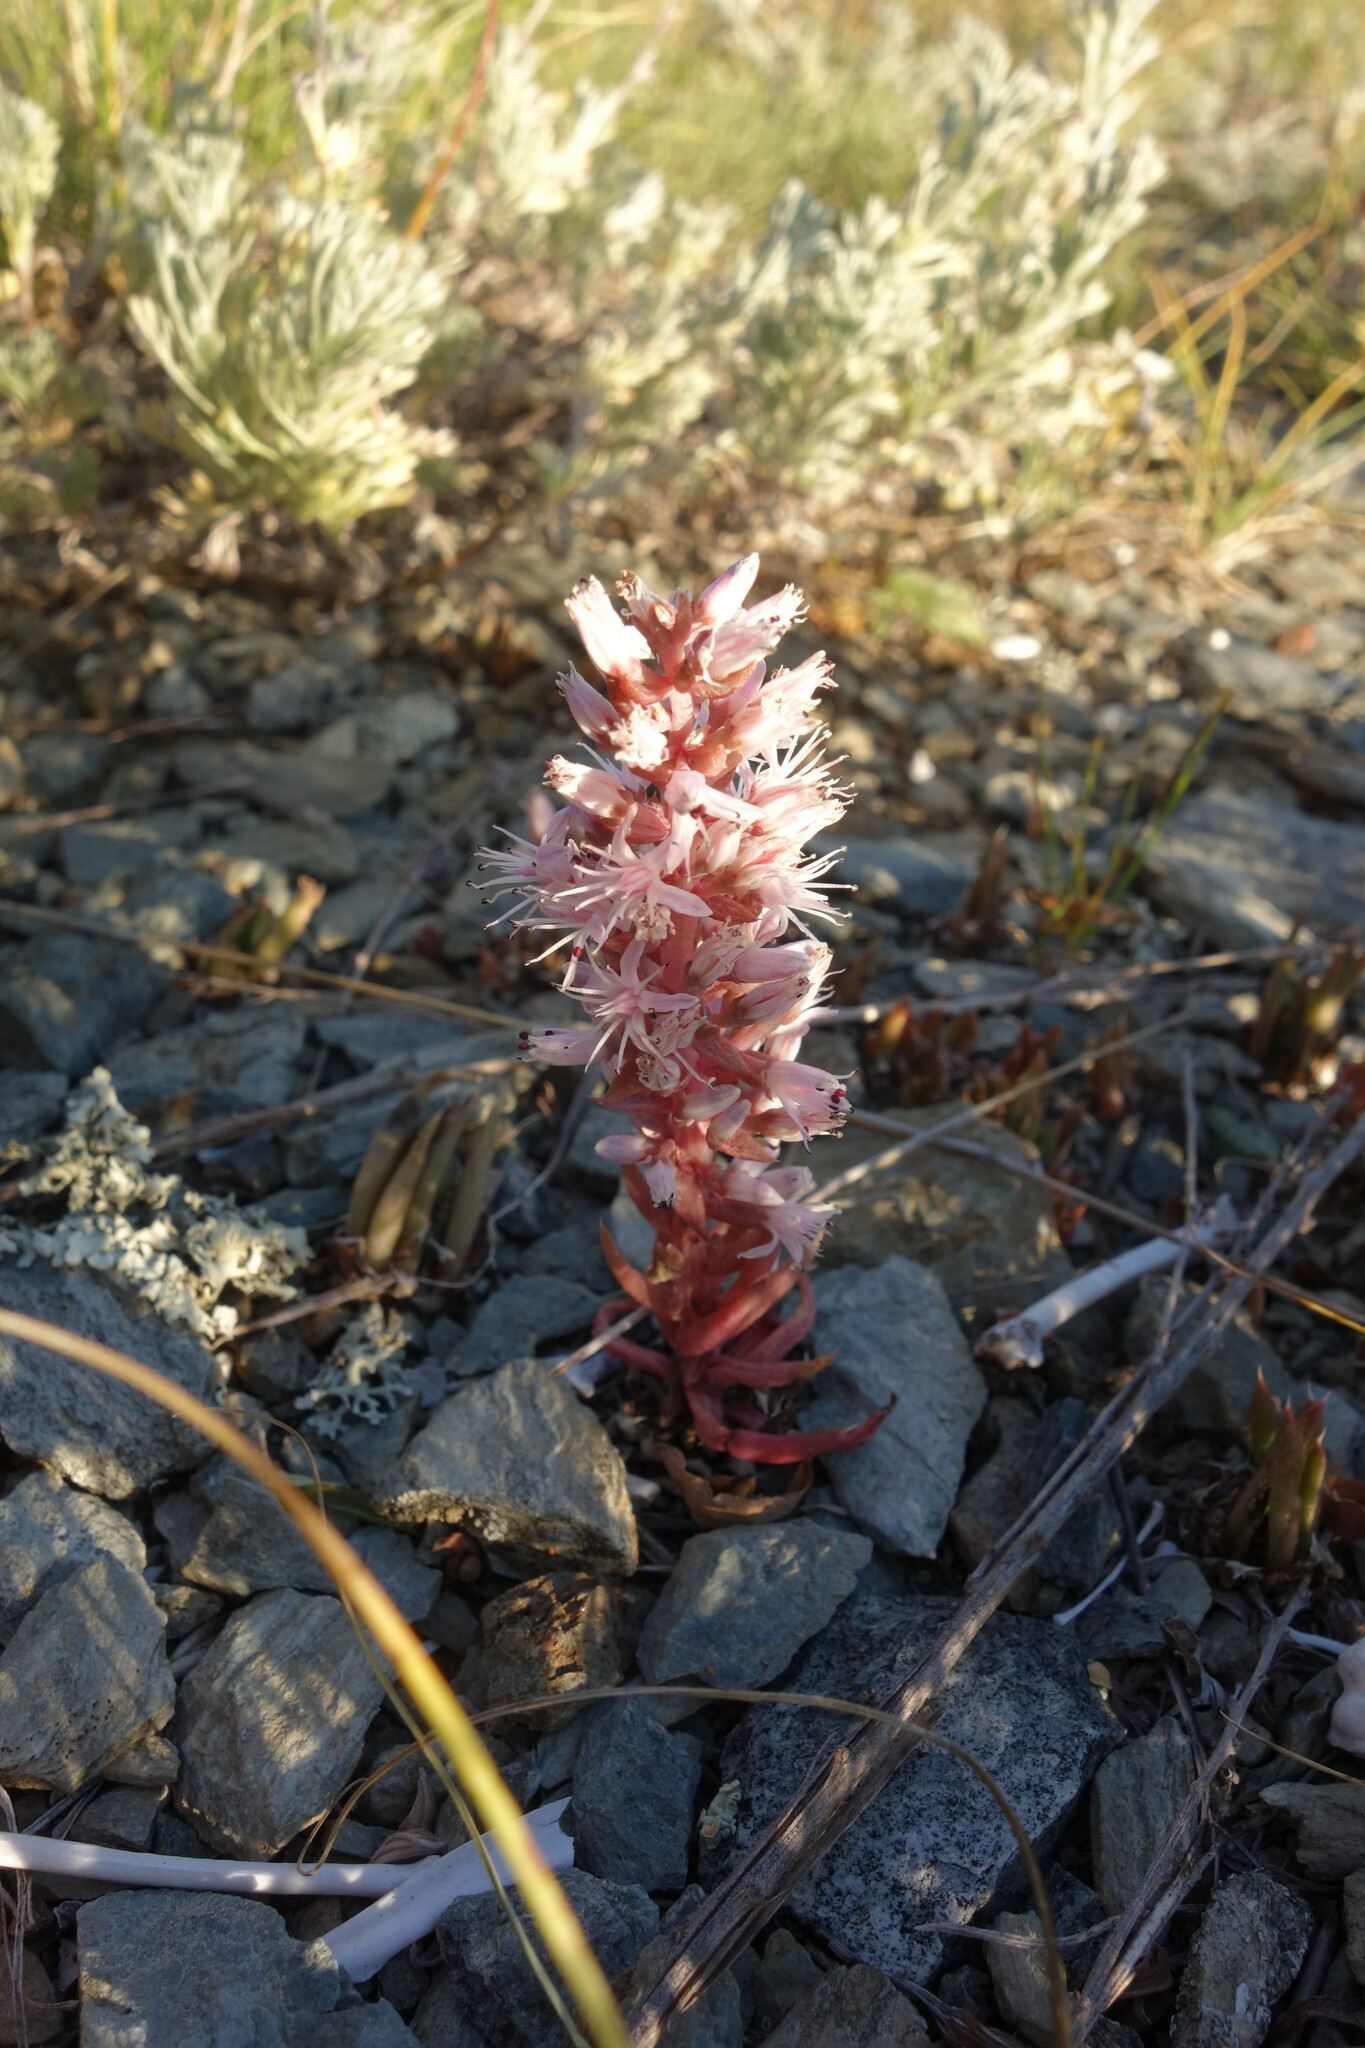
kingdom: Plantae
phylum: Tracheophyta
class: Magnoliopsida
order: Saxifragales
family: Crassulaceae
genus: Orostachys
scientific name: Orostachys fimbriata
